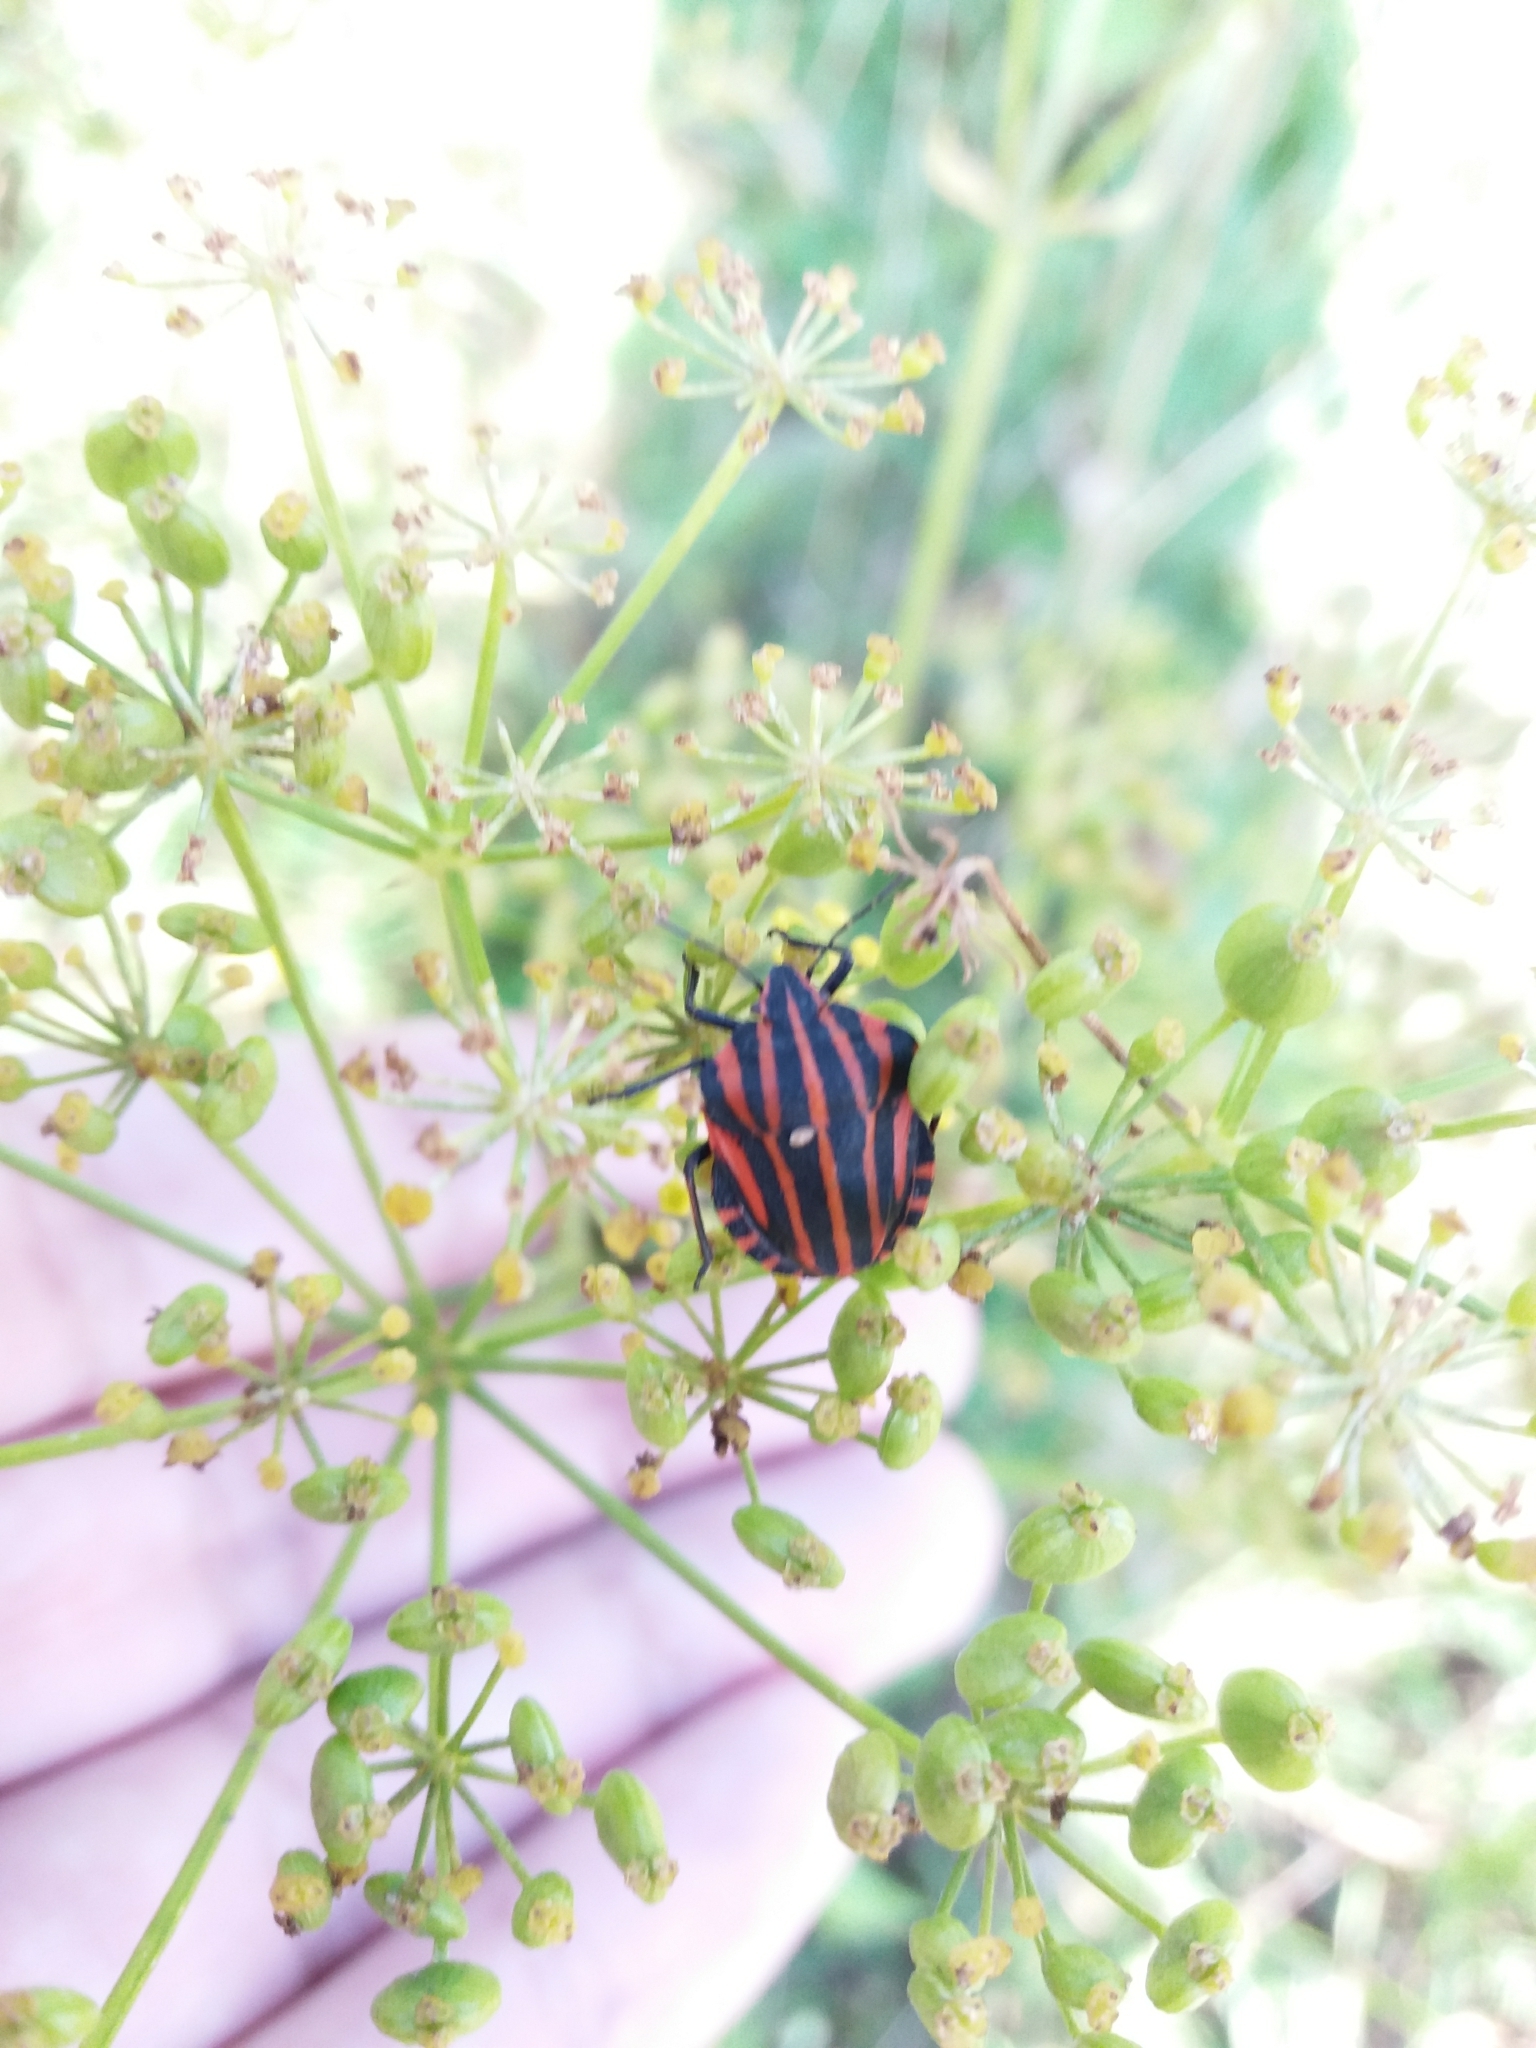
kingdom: Animalia
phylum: Arthropoda
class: Insecta
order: Hemiptera
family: Pentatomidae
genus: Graphosoma
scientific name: Graphosoma italicum
